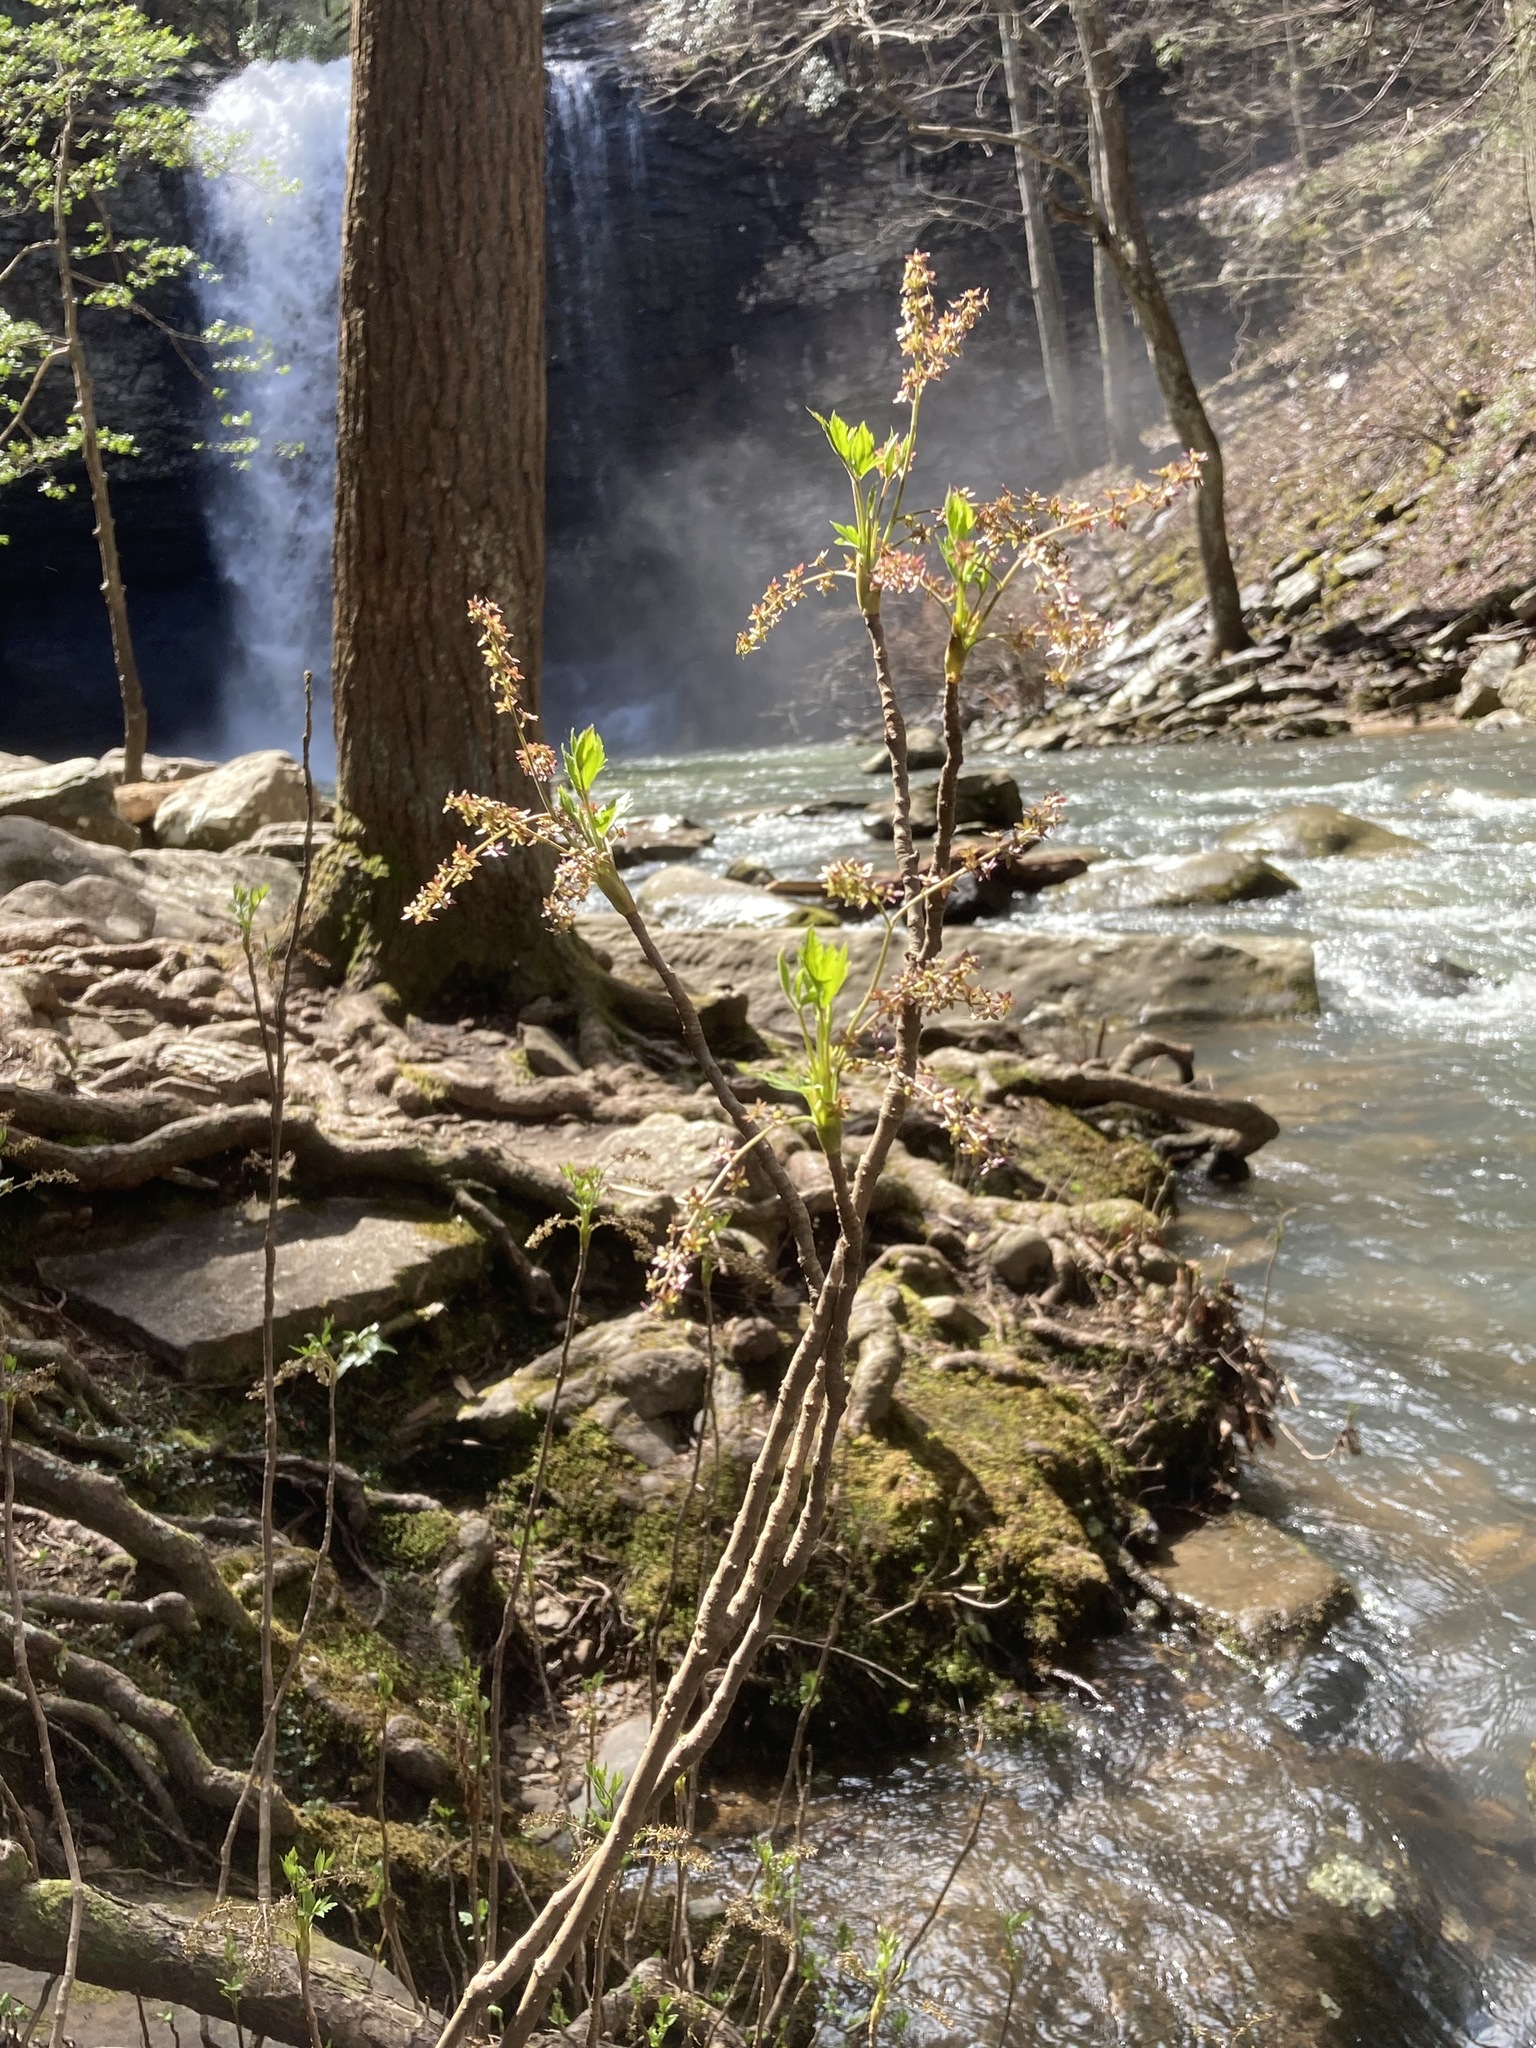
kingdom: Plantae
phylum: Tracheophyta
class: Magnoliopsida
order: Ranunculales
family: Ranunculaceae
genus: Xanthorhiza
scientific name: Xanthorhiza simplicissima
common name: Yellowroot
